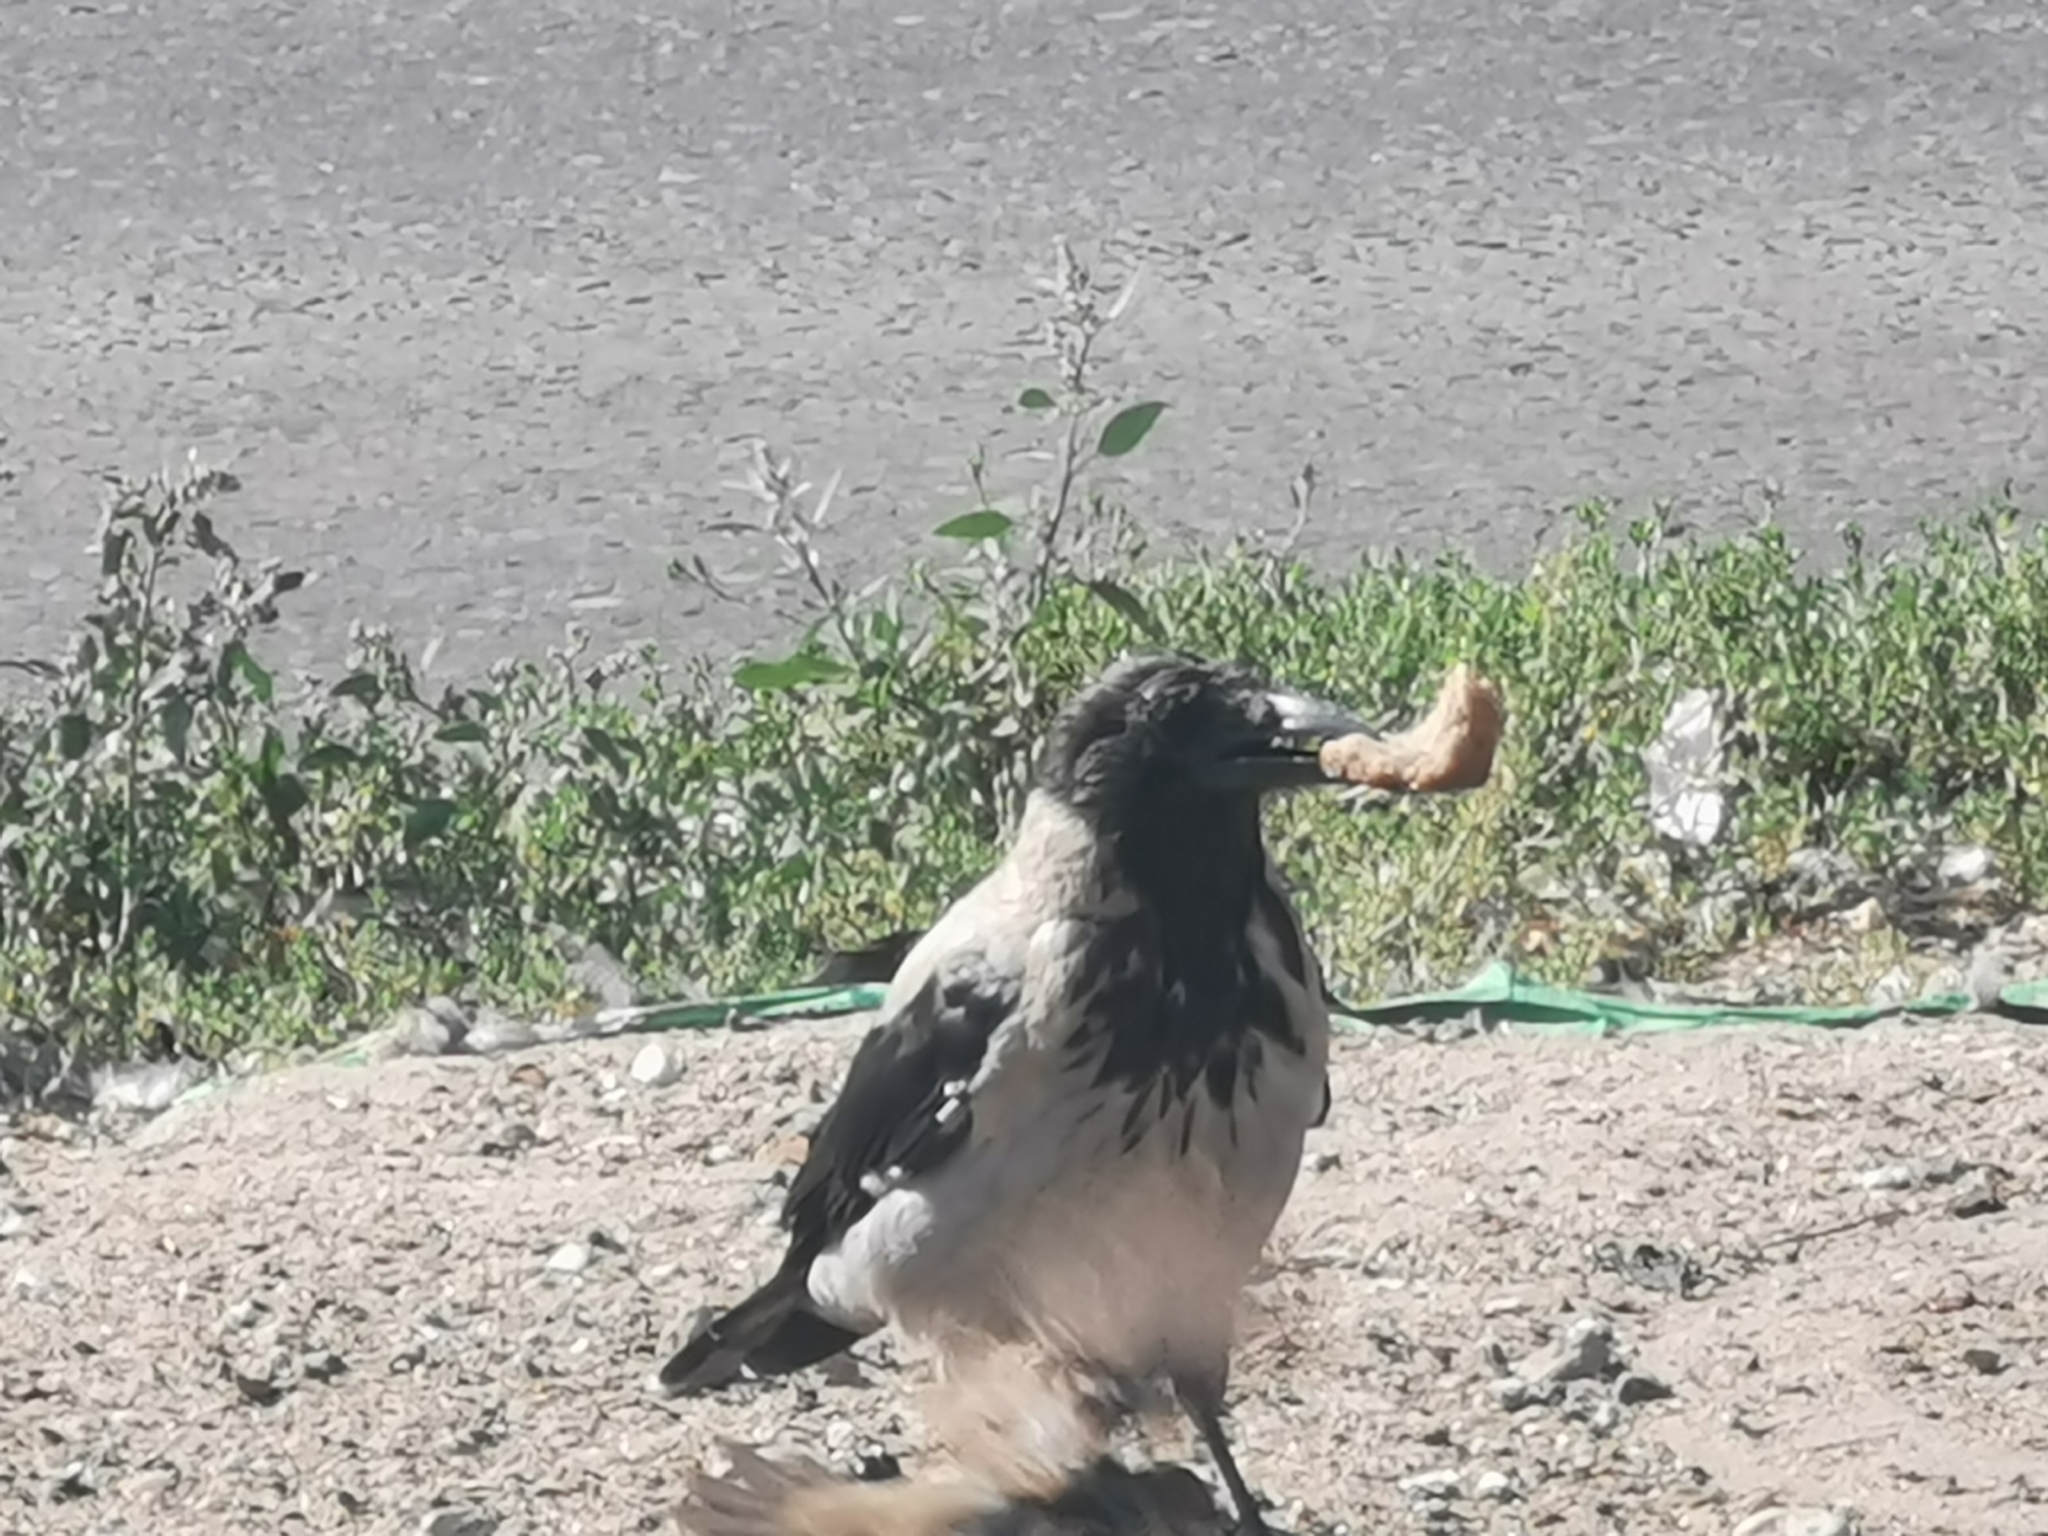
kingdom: Animalia
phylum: Chordata
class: Aves
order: Passeriformes
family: Corvidae
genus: Corvus
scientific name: Corvus cornix
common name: Hooded crow
